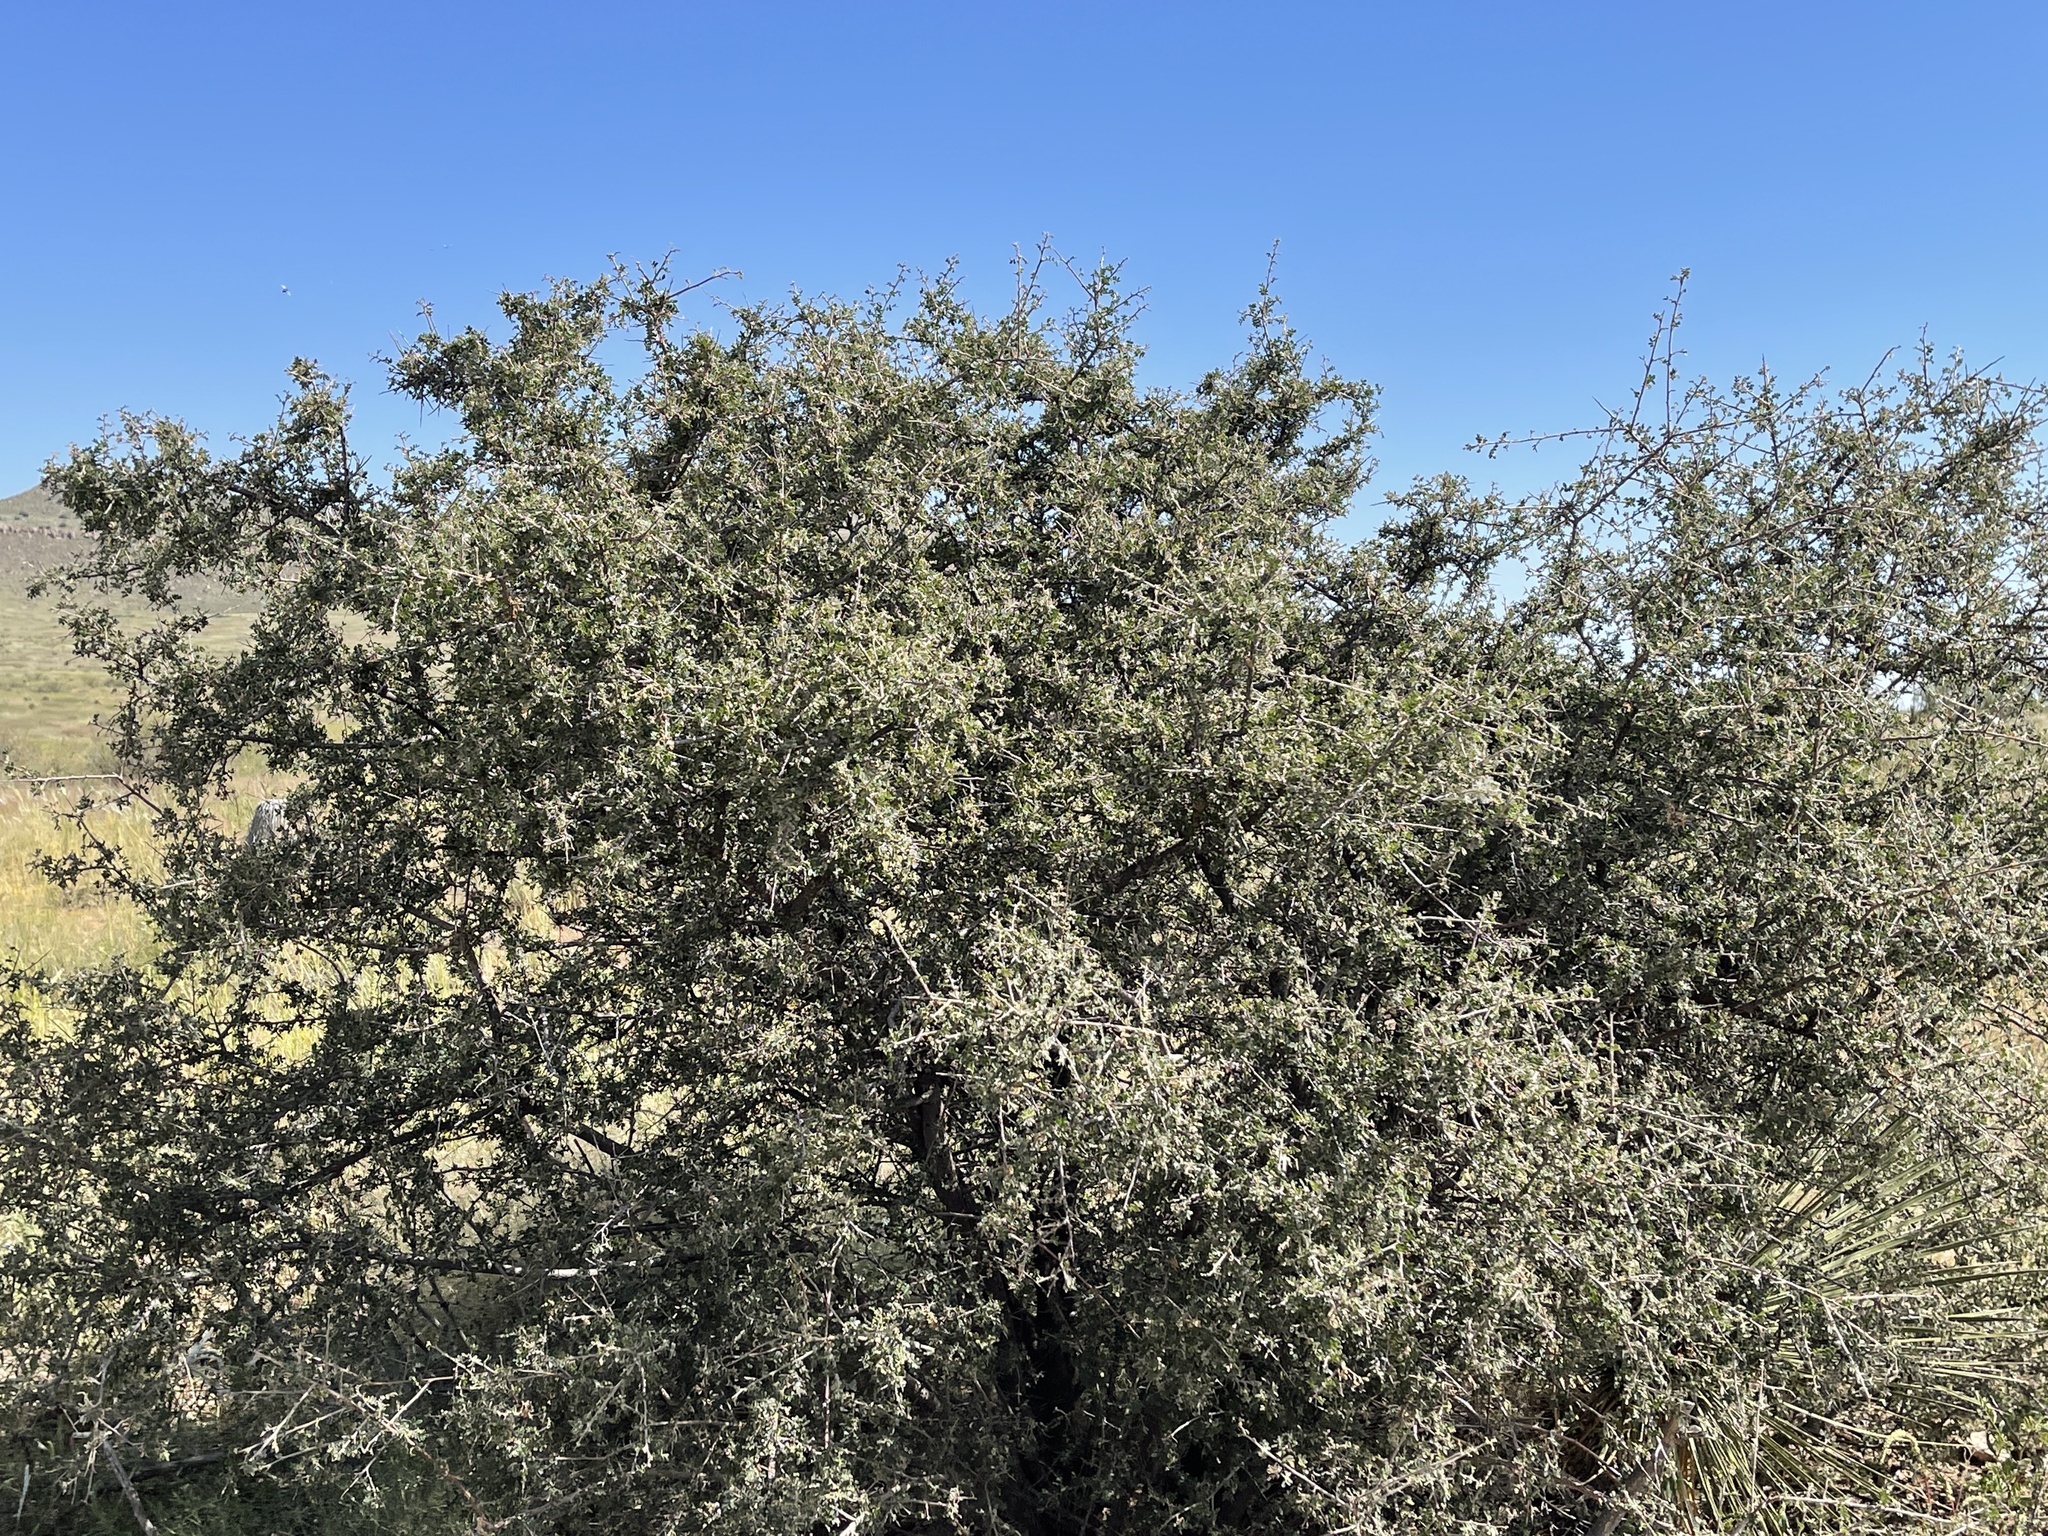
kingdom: Plantae
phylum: Tracheophyta
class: Magnoliopsida
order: Sapindales
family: Anacardiaceae
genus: Rhus
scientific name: Rhus microphylla
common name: Desert sumac
